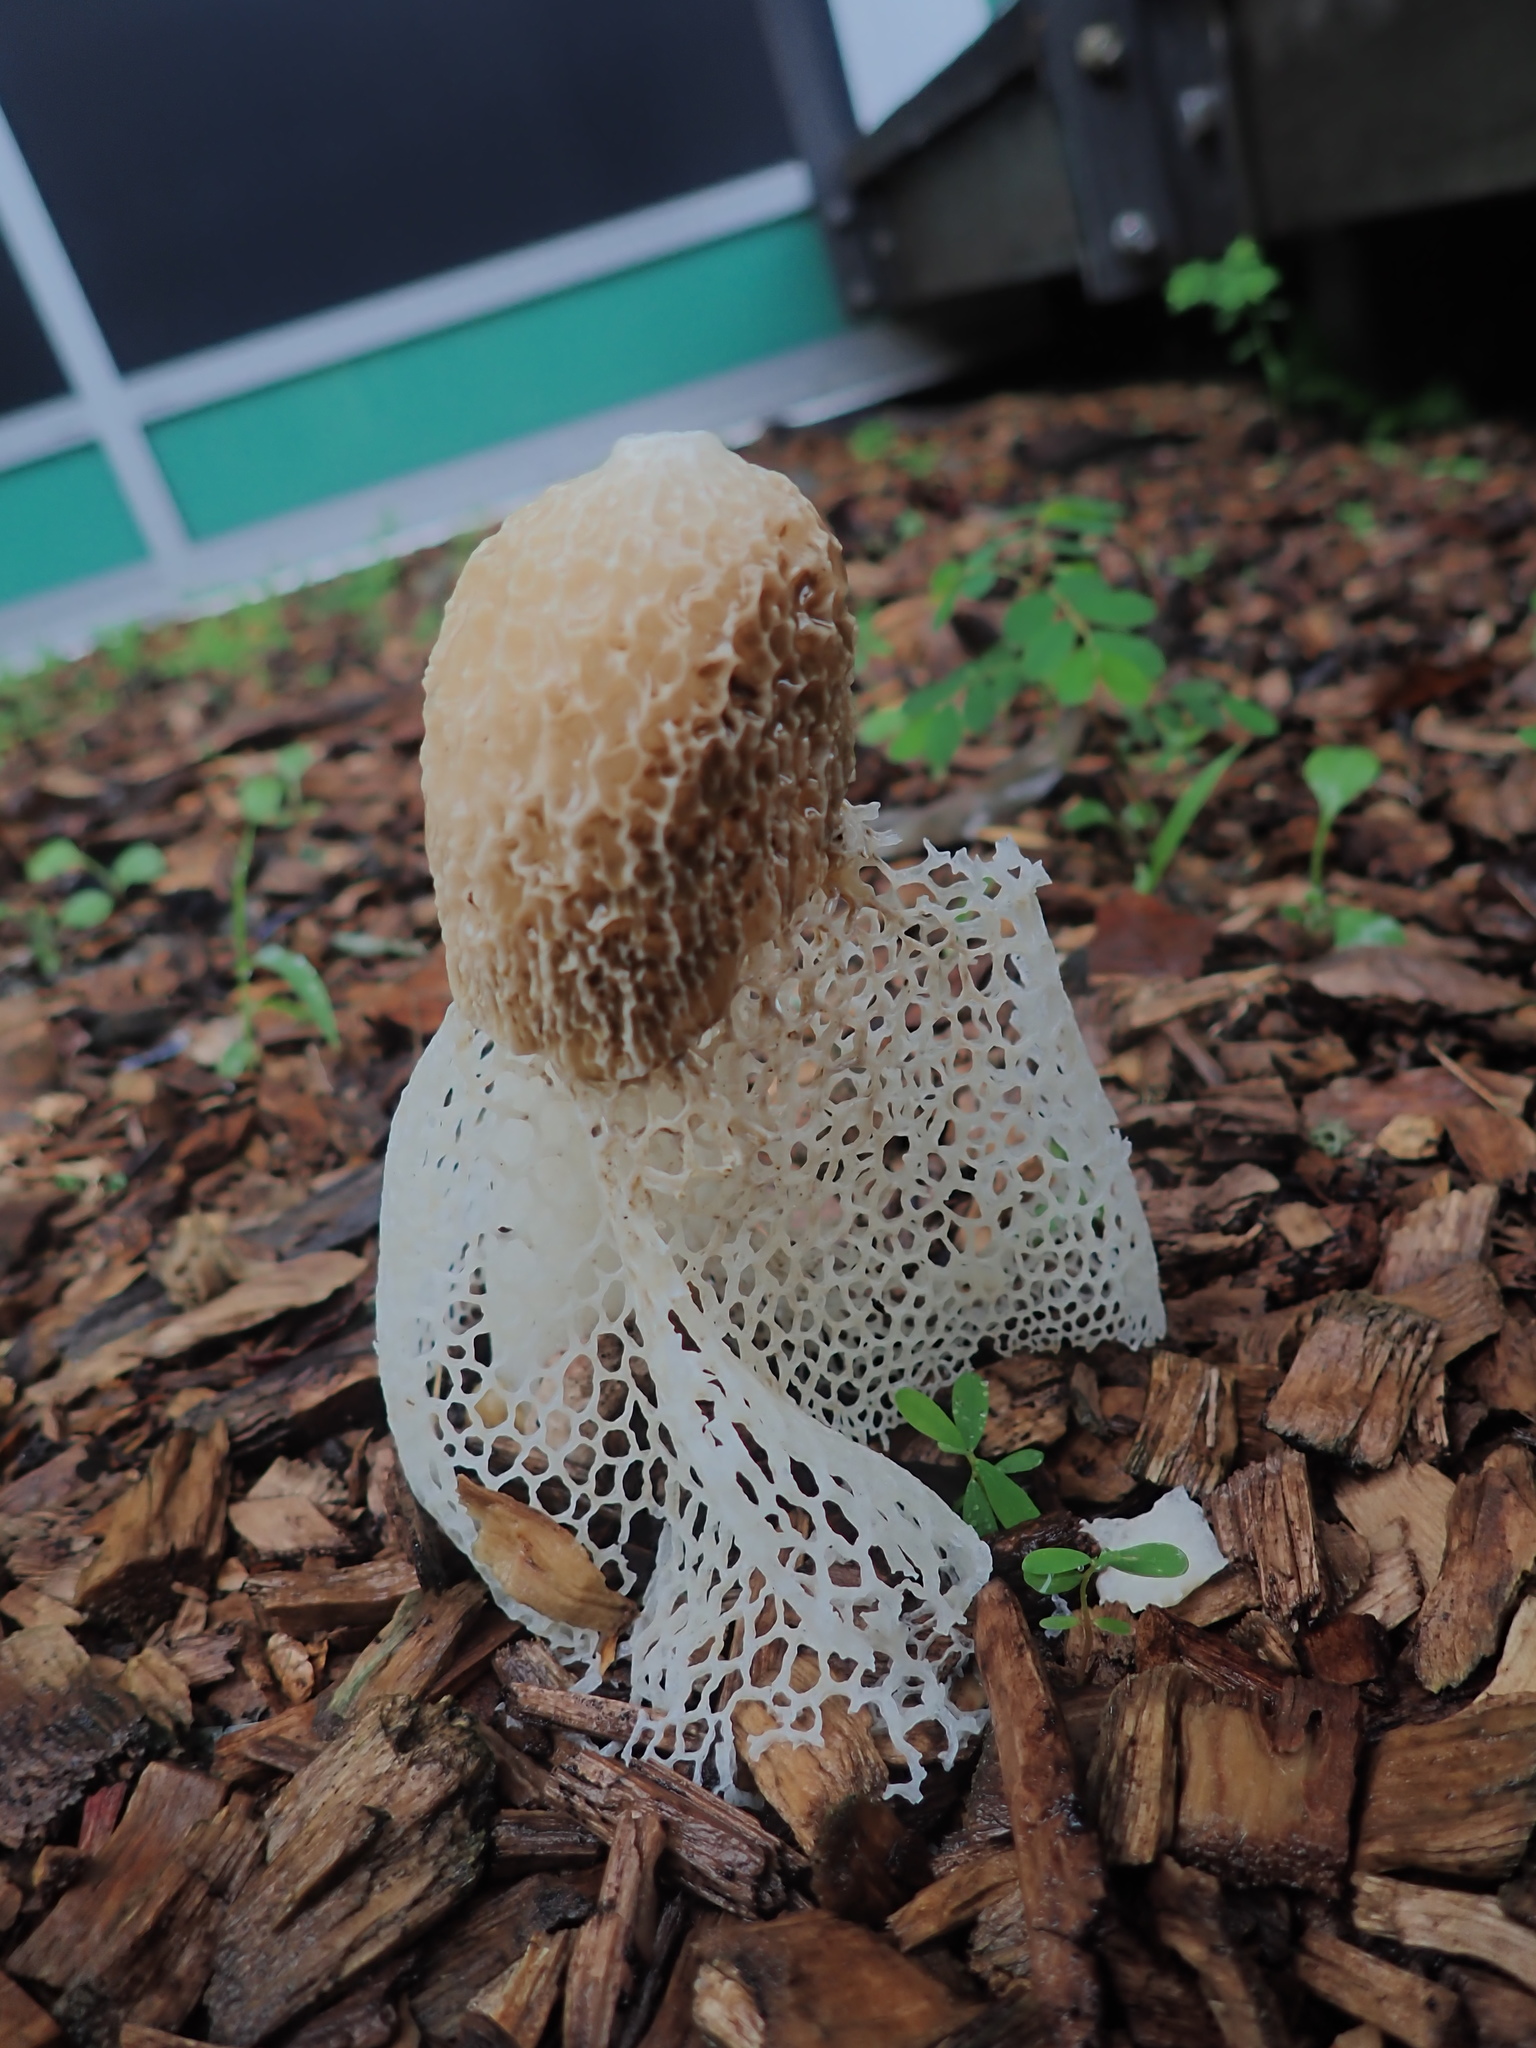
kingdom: Fungi
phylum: Basidiomycota
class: Agaricomycetes
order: Phallales
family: Phallaceae
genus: Phallus
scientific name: Phallus indusiatus
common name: Bridal veil stinkhorn
